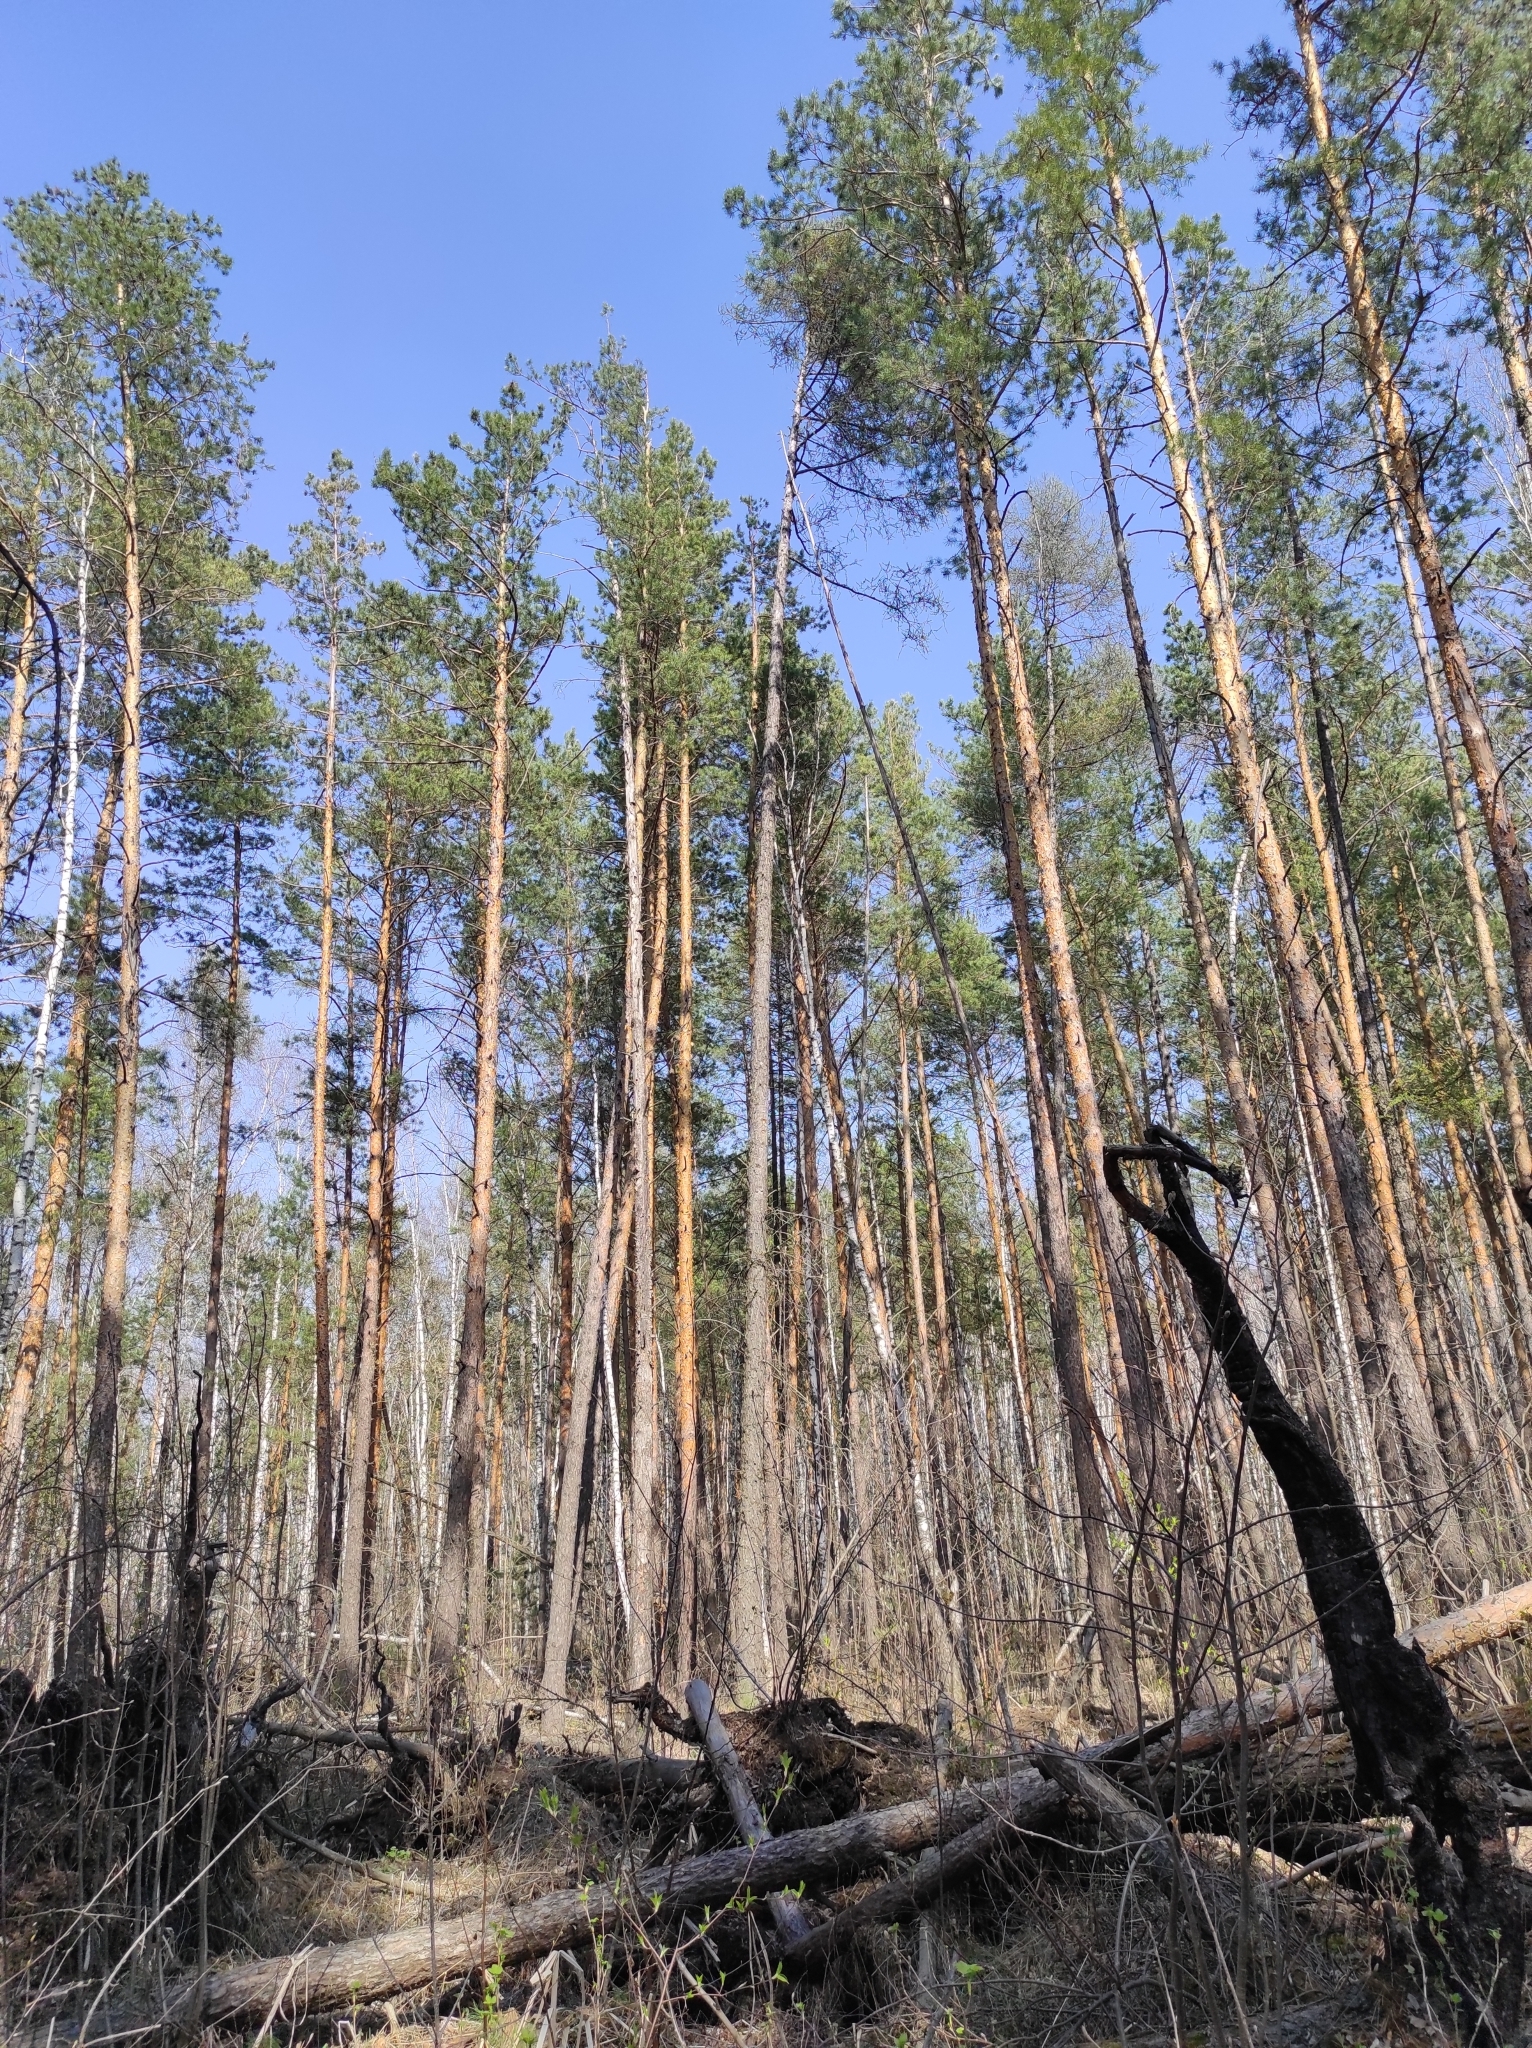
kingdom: Plantae
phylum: Tracheophyta
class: Pinopsida
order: Pinales
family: Pinaceae
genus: Pinus
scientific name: Pinus sylvestris
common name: Scots pine
